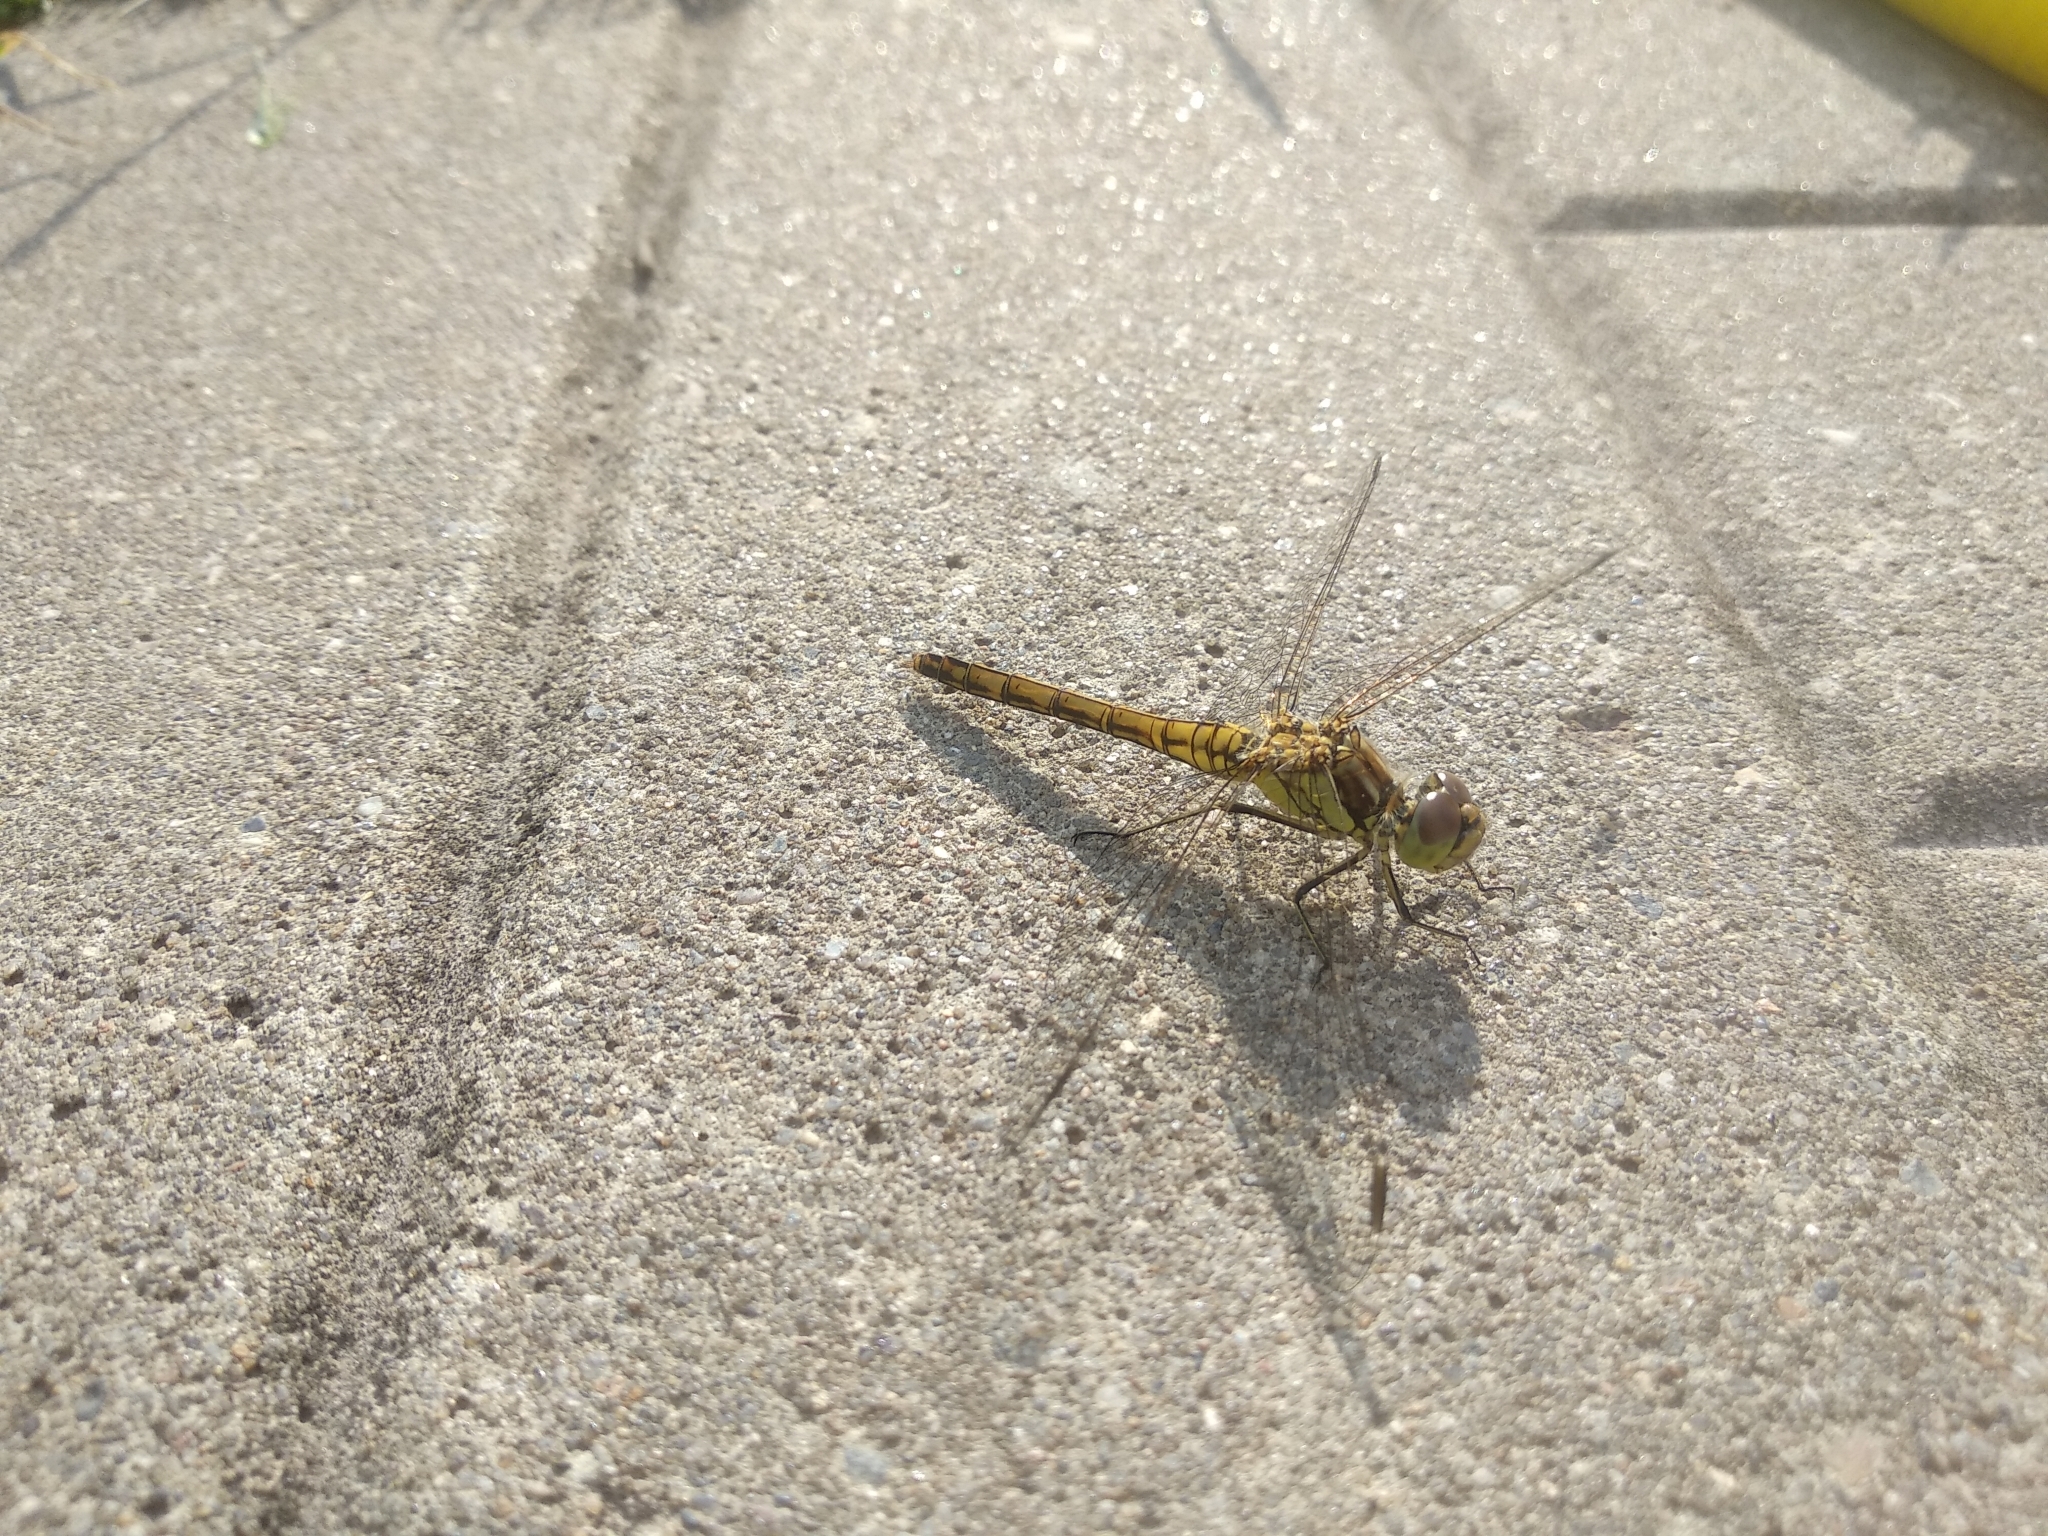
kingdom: Animalia
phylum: Arthropoda
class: Insecta
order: Odonata
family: Libellulidae
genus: Sympetrum
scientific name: Sympetrum vulgatum
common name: Vagrant darter
